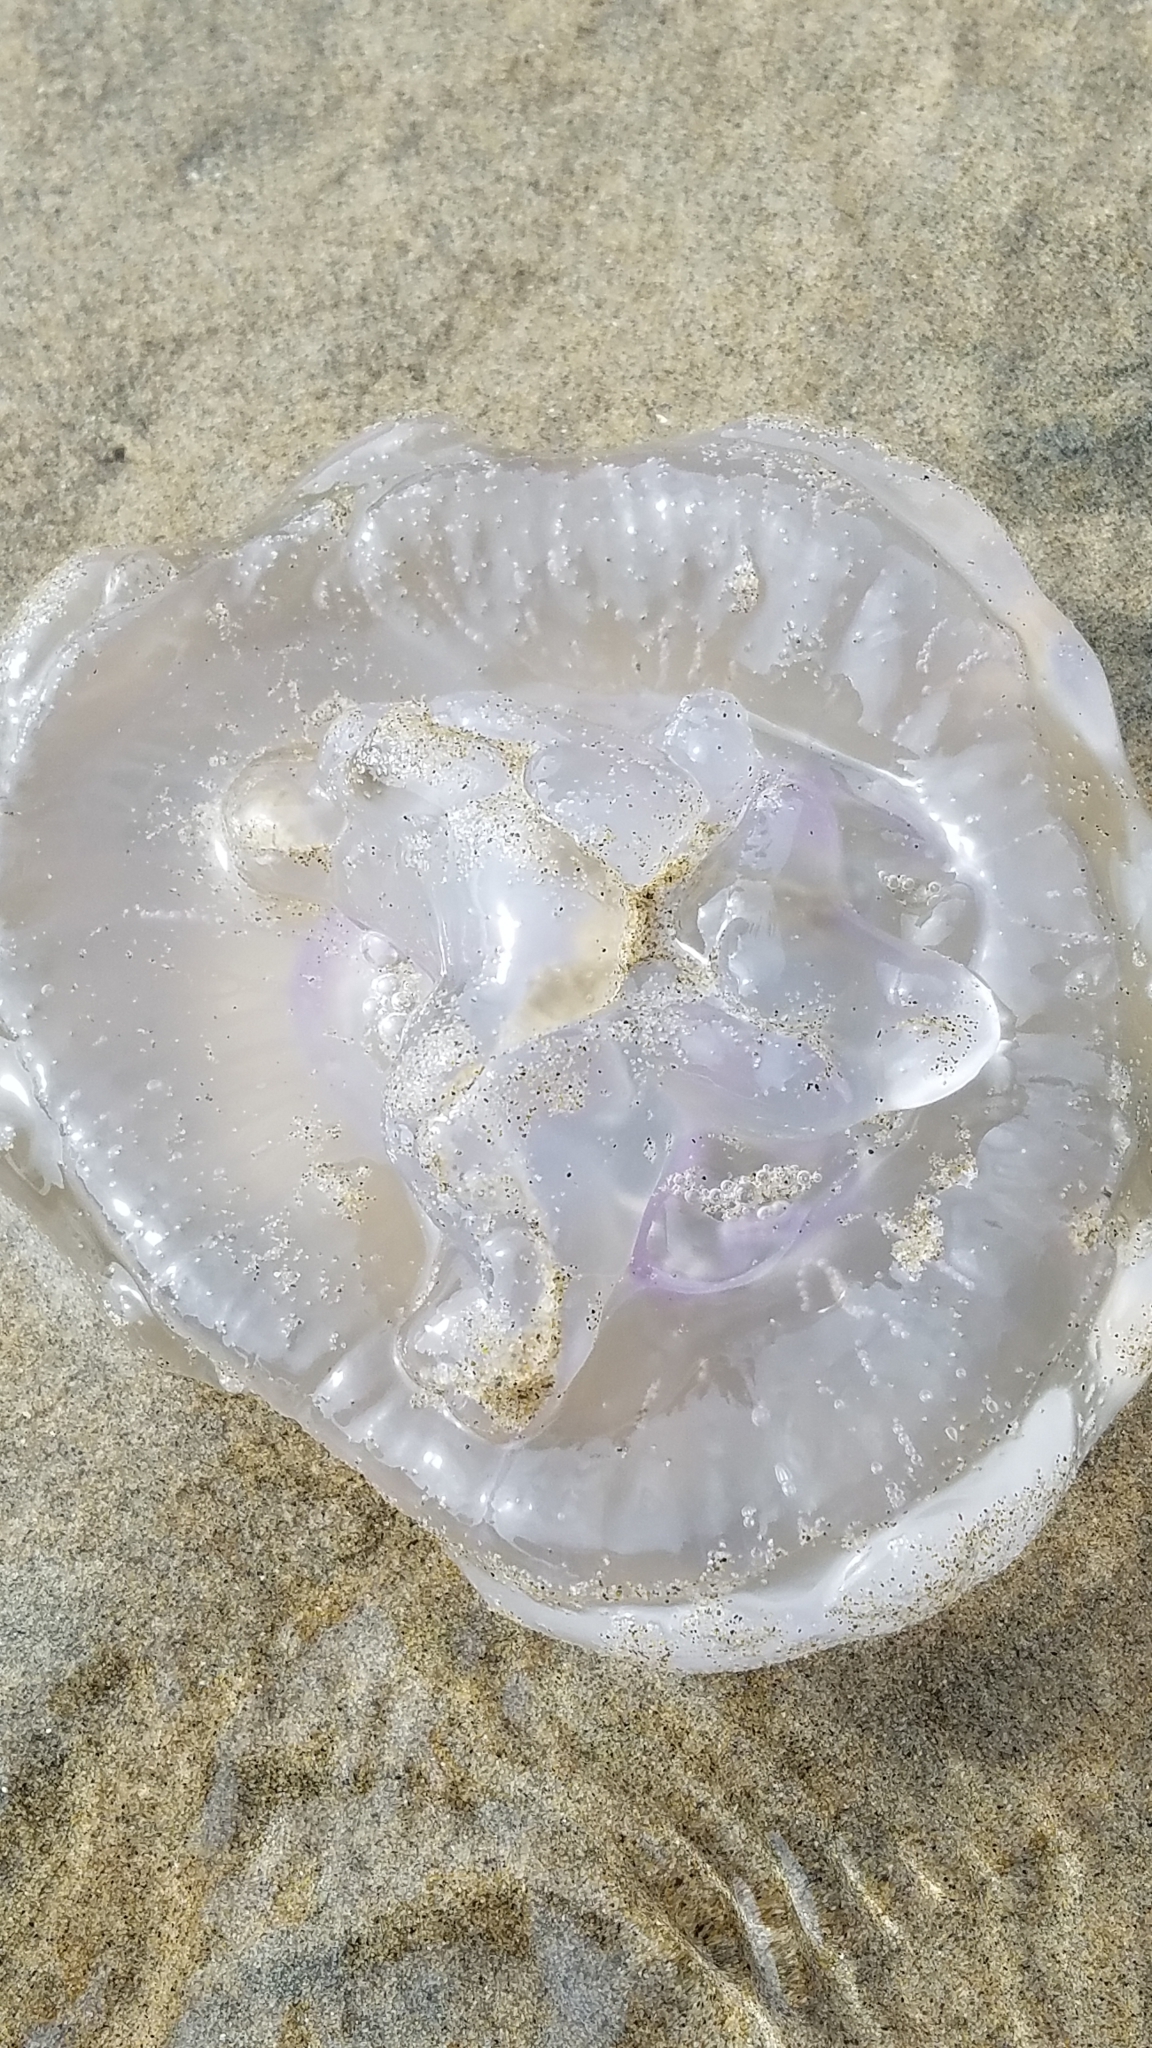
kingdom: Animalia
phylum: Cnidaria
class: Scyphozoa
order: Semaeostomeae
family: Ulmaridae
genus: Aurelia
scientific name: Aurelia labiata
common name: Pacific moon jelly
